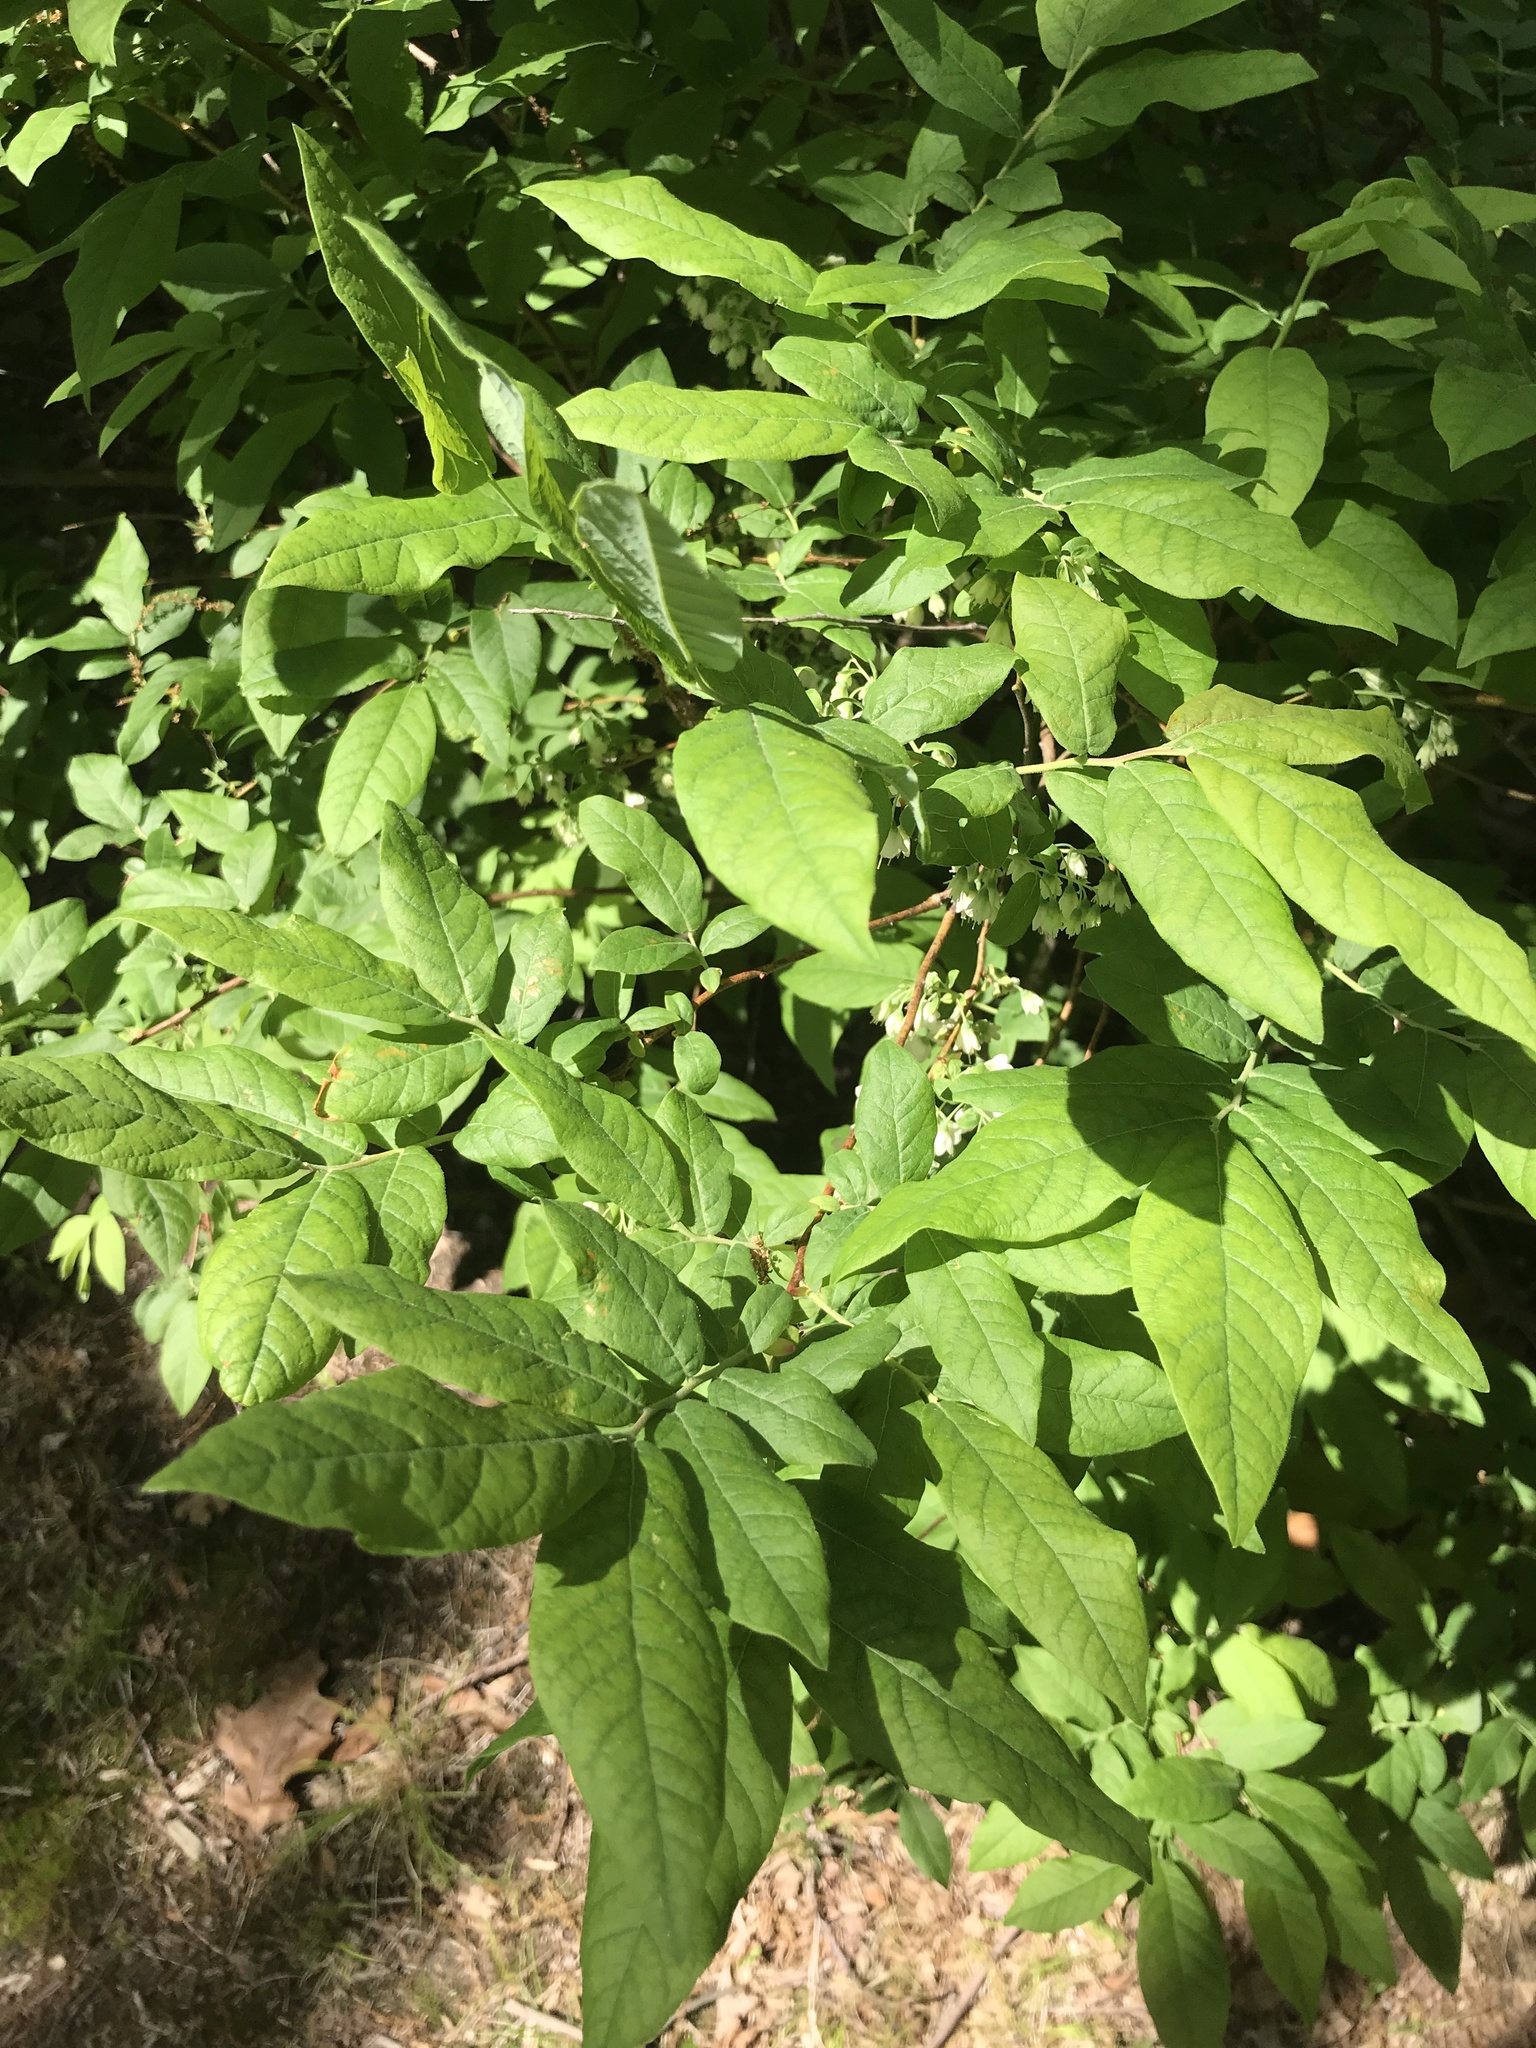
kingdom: Plantae
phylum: Tracheophyta
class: Magnoliopsida
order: Ericales
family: Ericaceae
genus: Vaccinium
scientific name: Vaccinium stamineum
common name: Deerberry
